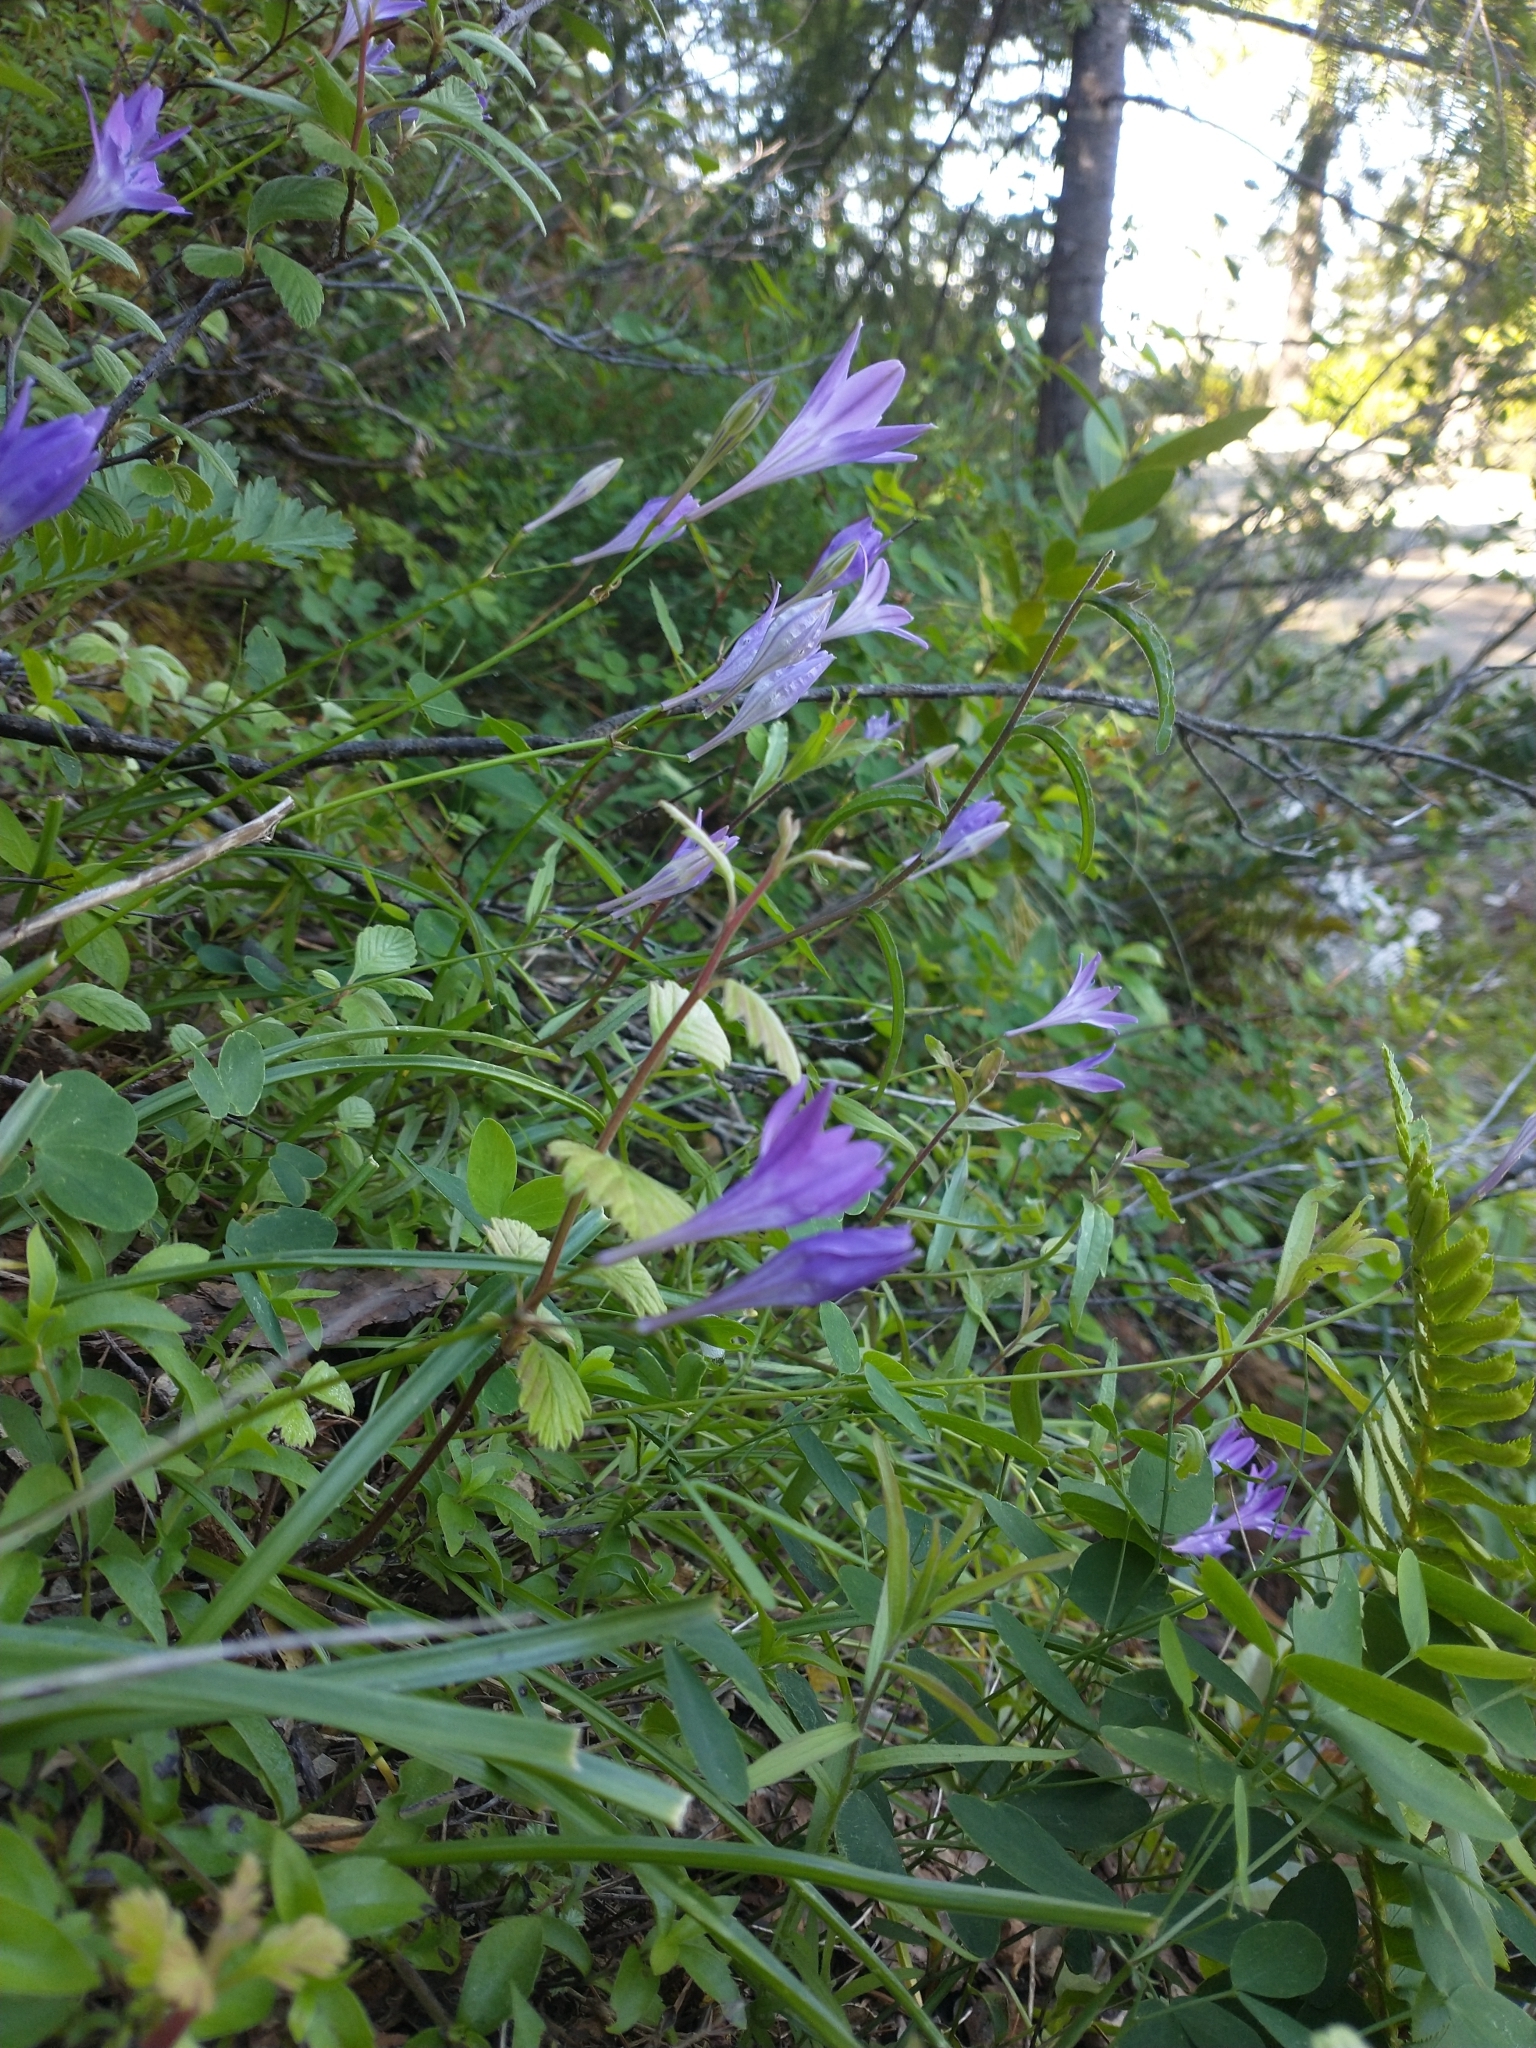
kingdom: Plantae
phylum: Tracheophyta
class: Liliopsida
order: Asparagales
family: Asparagaceae
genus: Triteleia
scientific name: Triteleia bridgesii
